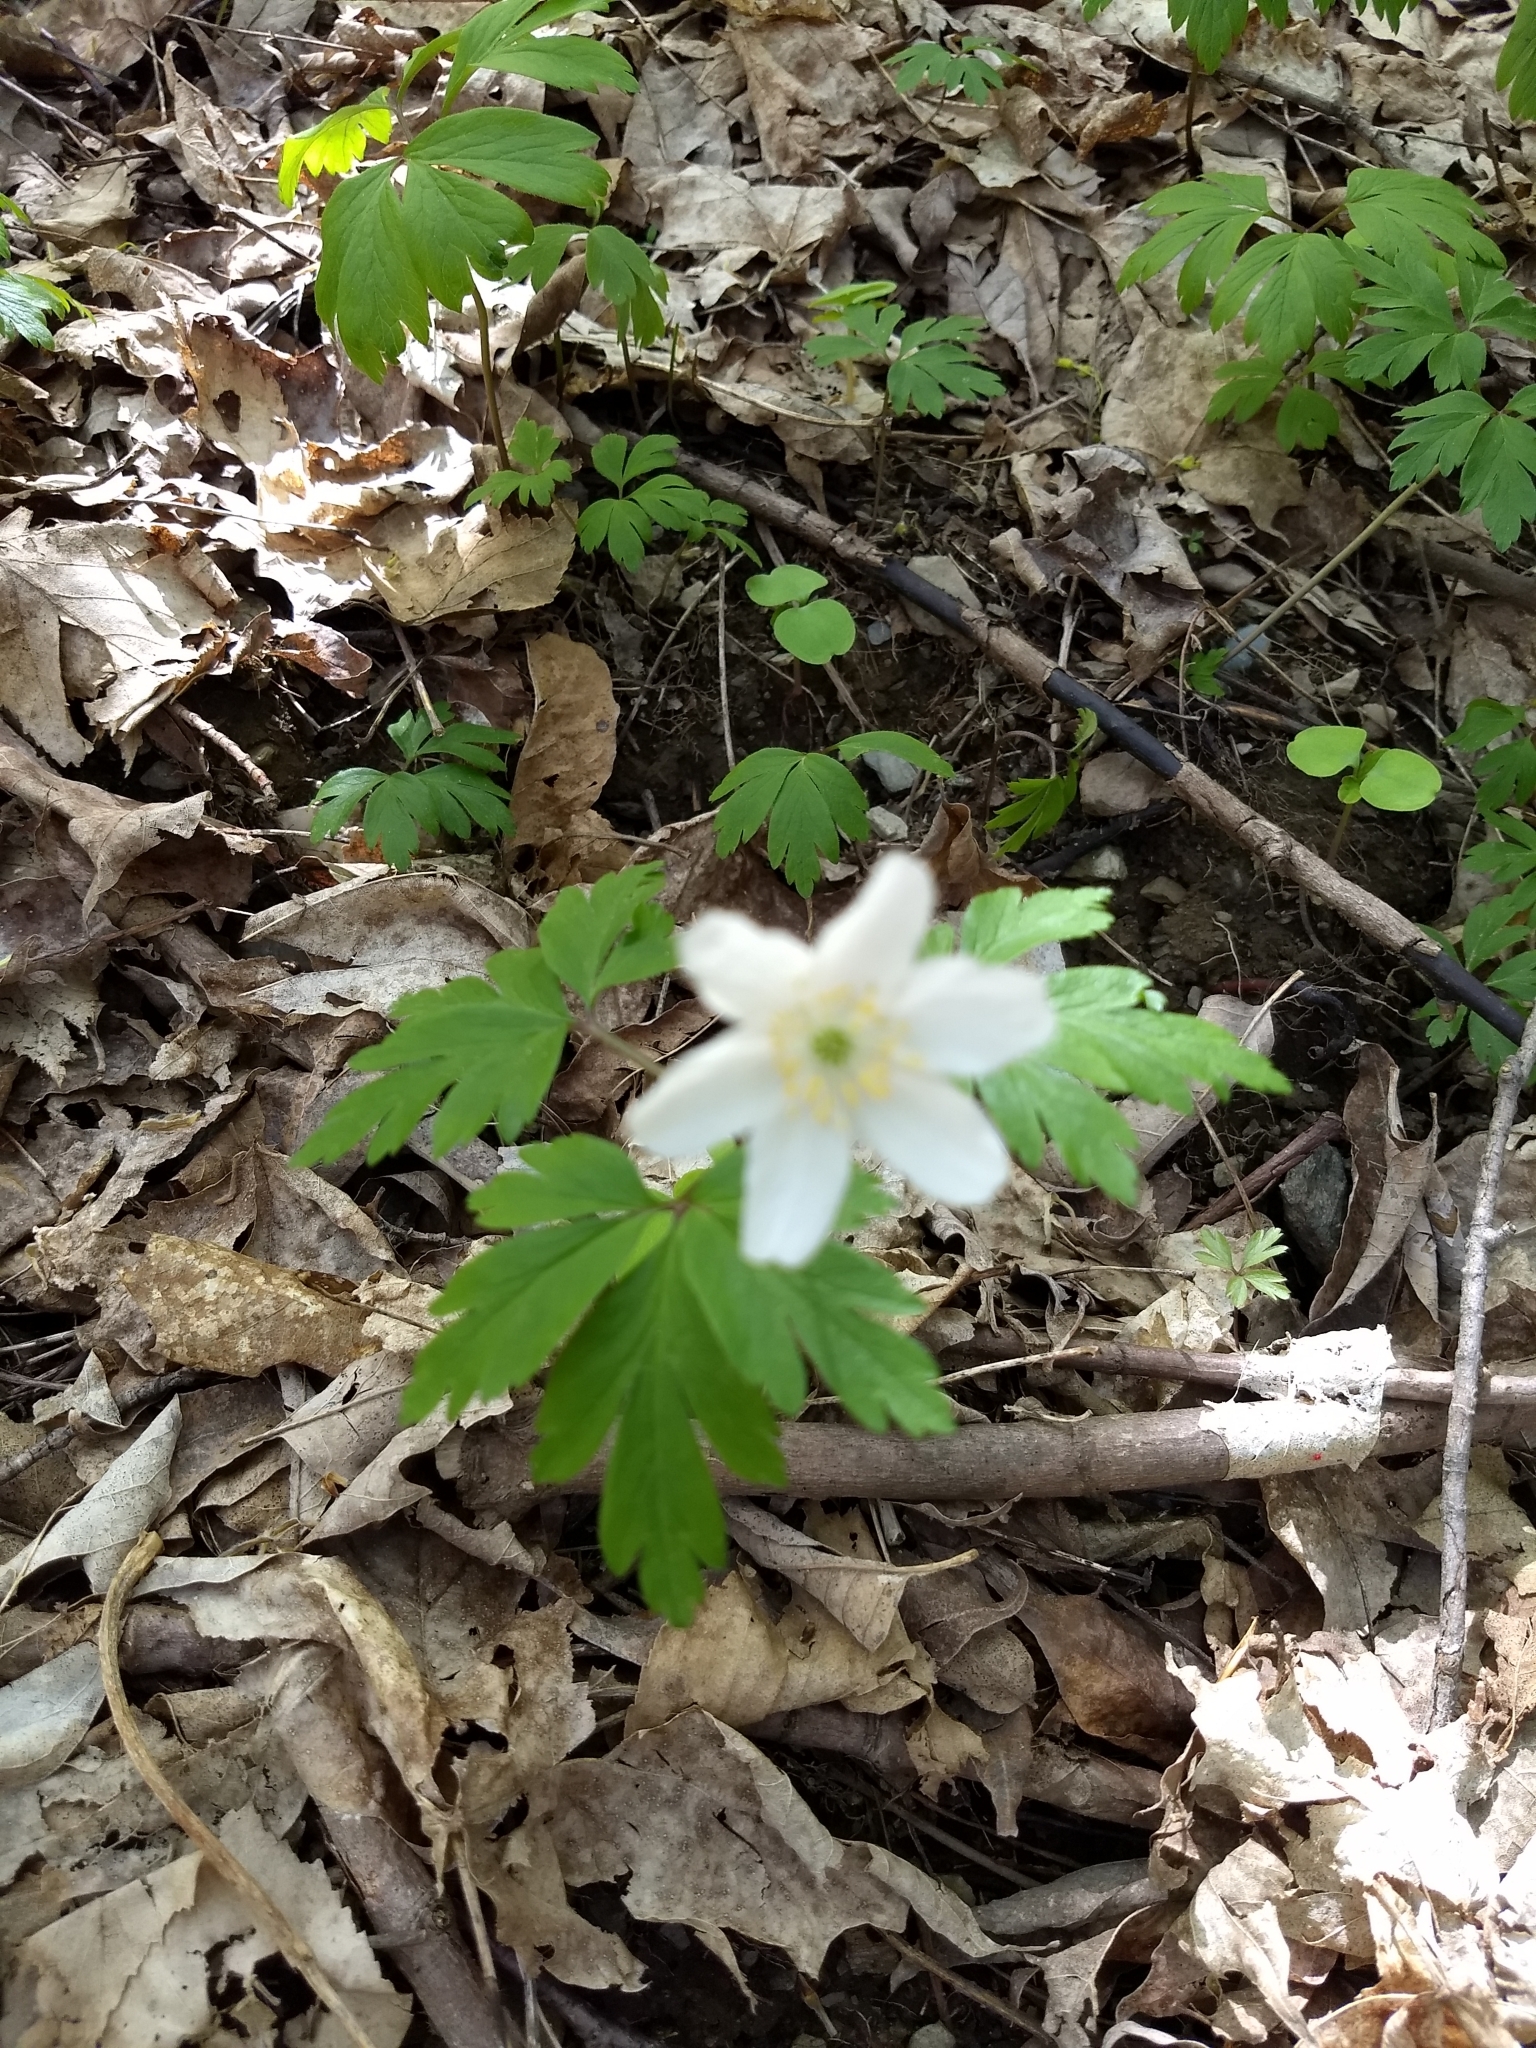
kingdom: Plantae
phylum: Tracheophyta
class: Magnoliopsida
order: Ranunculales
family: Ranunculaceae
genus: Anemone
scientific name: Anemone nemorosa
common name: Wood anemone
